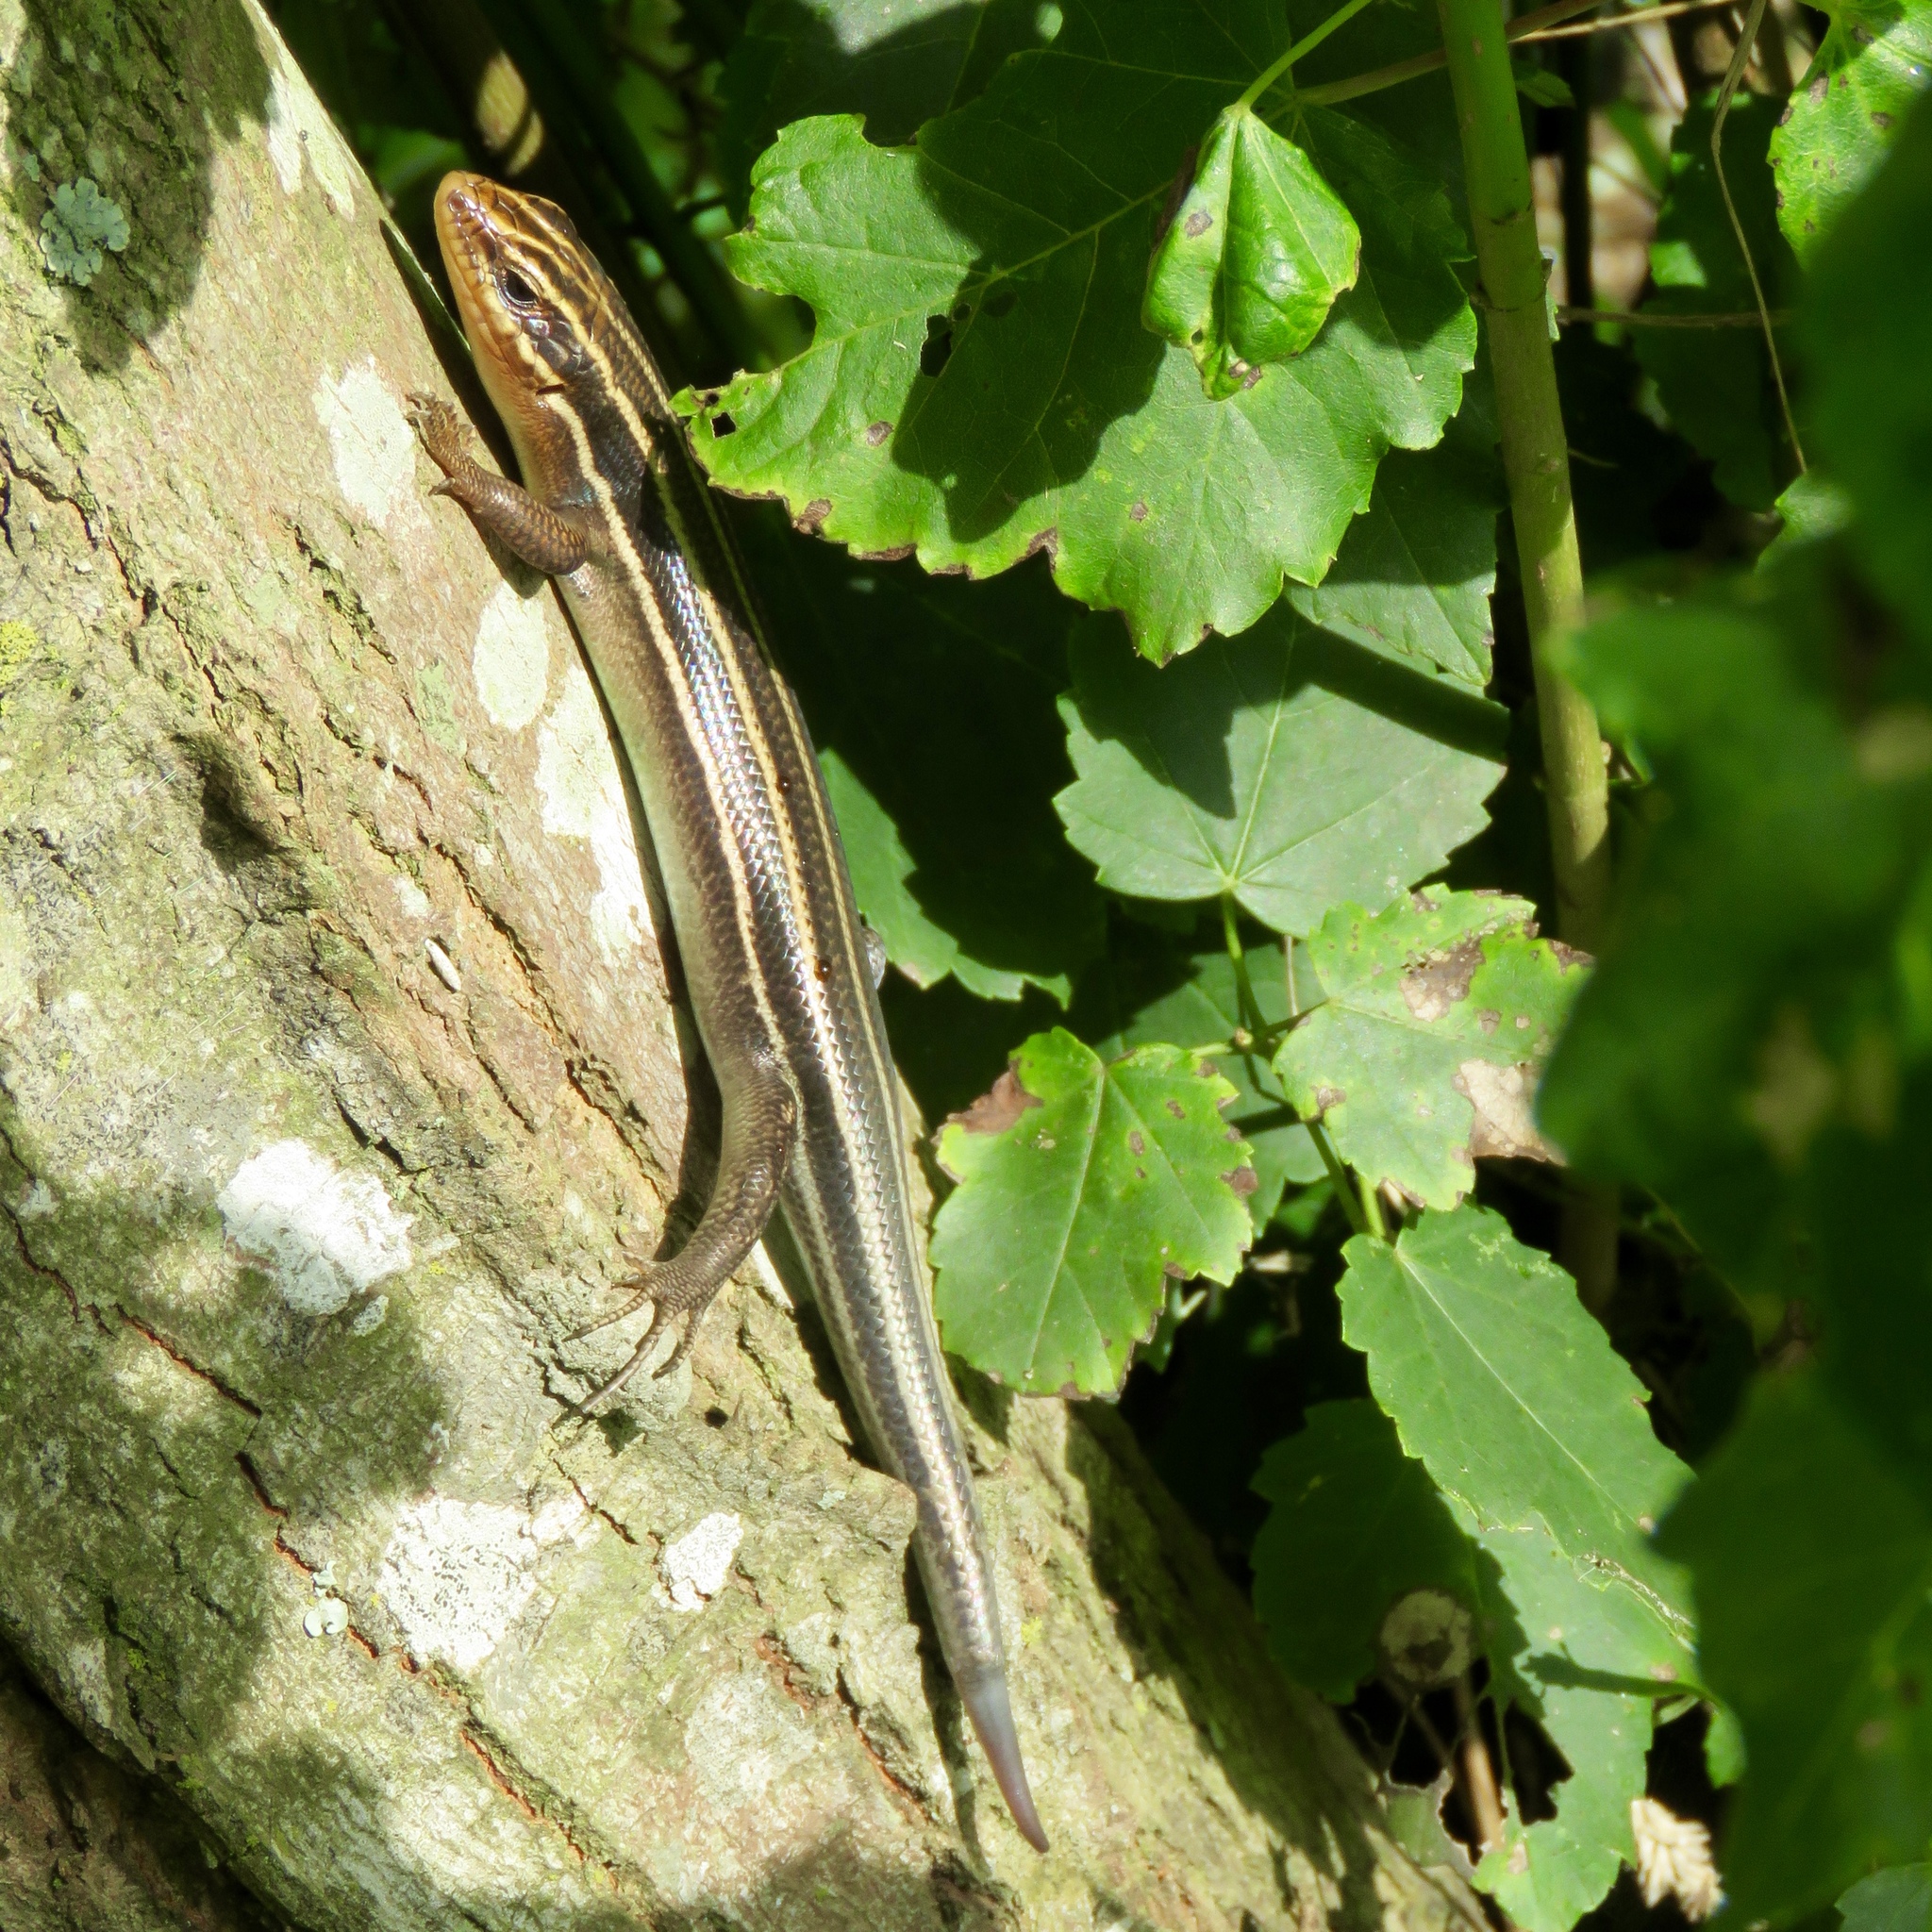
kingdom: Animalia
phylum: Chordata
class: Squamata
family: Scincidae
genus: Plestiodon
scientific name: Plestiodon fasciatus
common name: Five-lined skink
